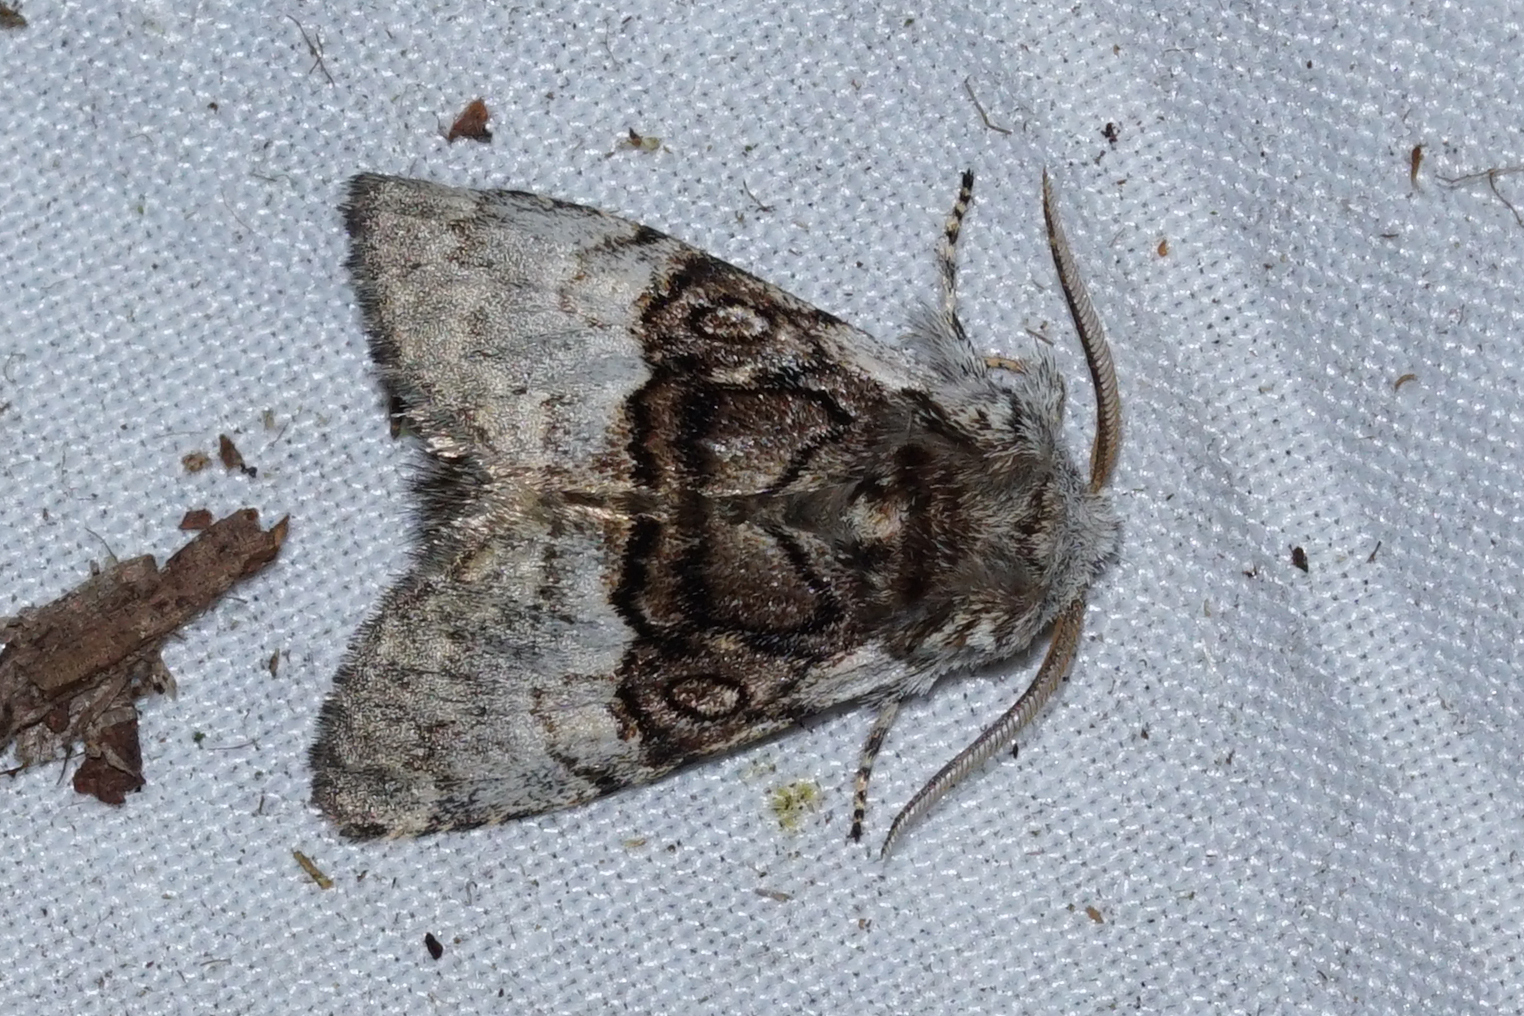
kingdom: Animalia
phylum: Arthropoda
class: Insecta
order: Lepidoptera
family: Noctuidae
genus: Colocasia
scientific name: Colocasia coryli
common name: Nut-tree tussock
